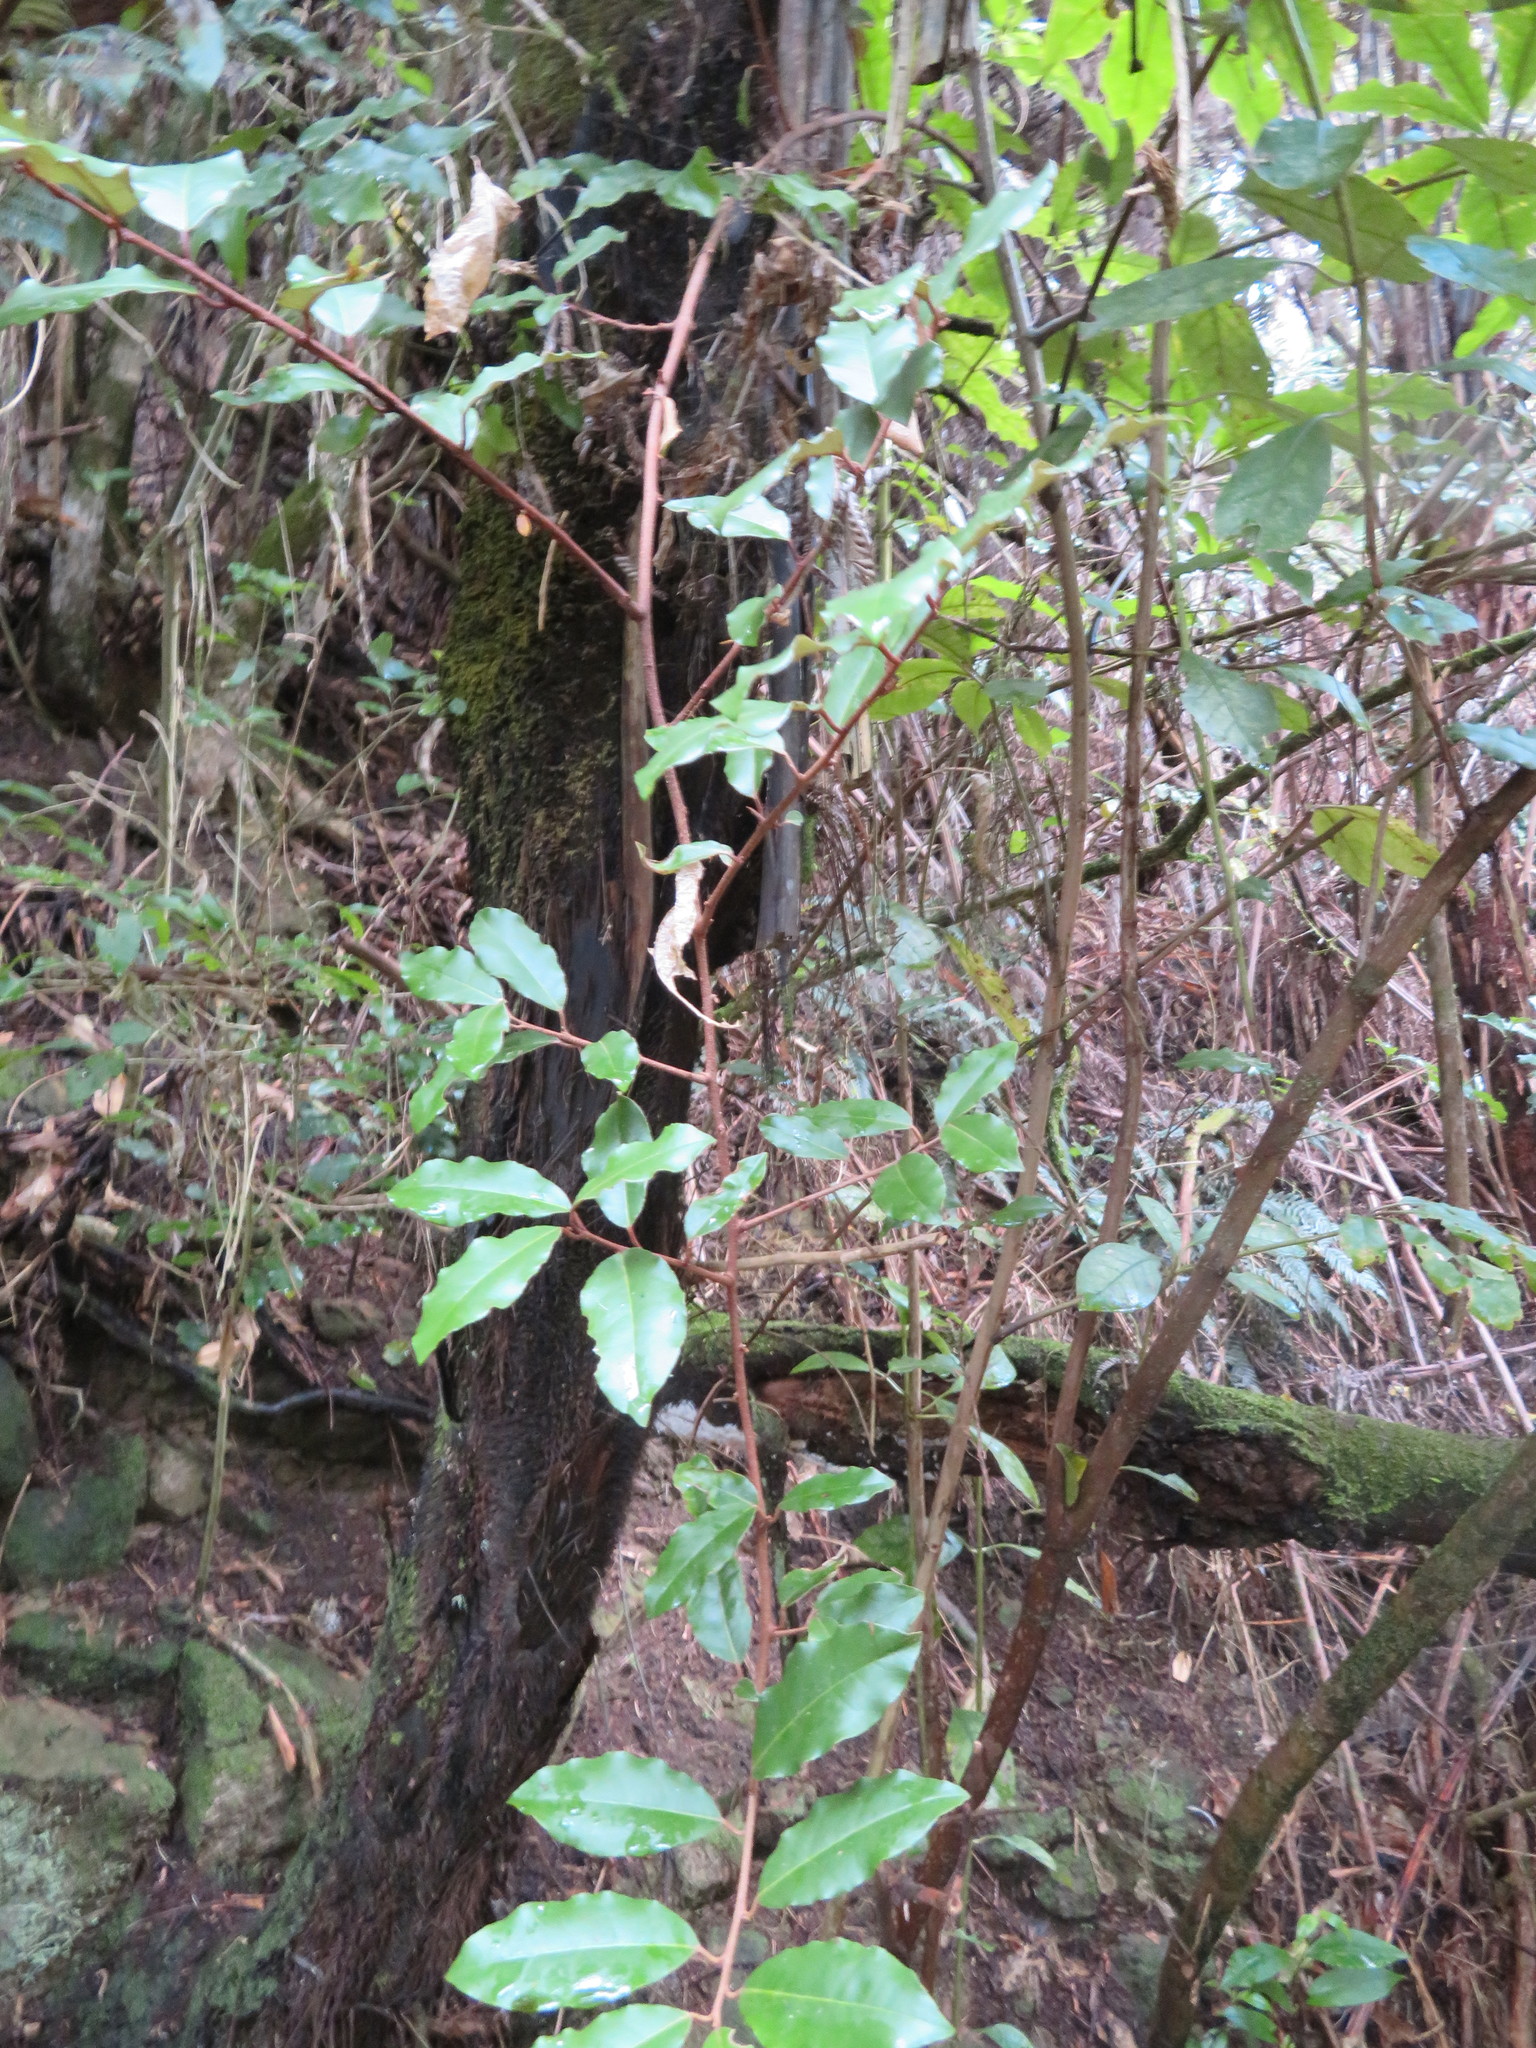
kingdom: Plantae
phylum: Tracheophyta
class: Magnoliopsida
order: Rosales
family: Elaeagnaceae
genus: Elaeagnus
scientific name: Elaeagnus reflexa
